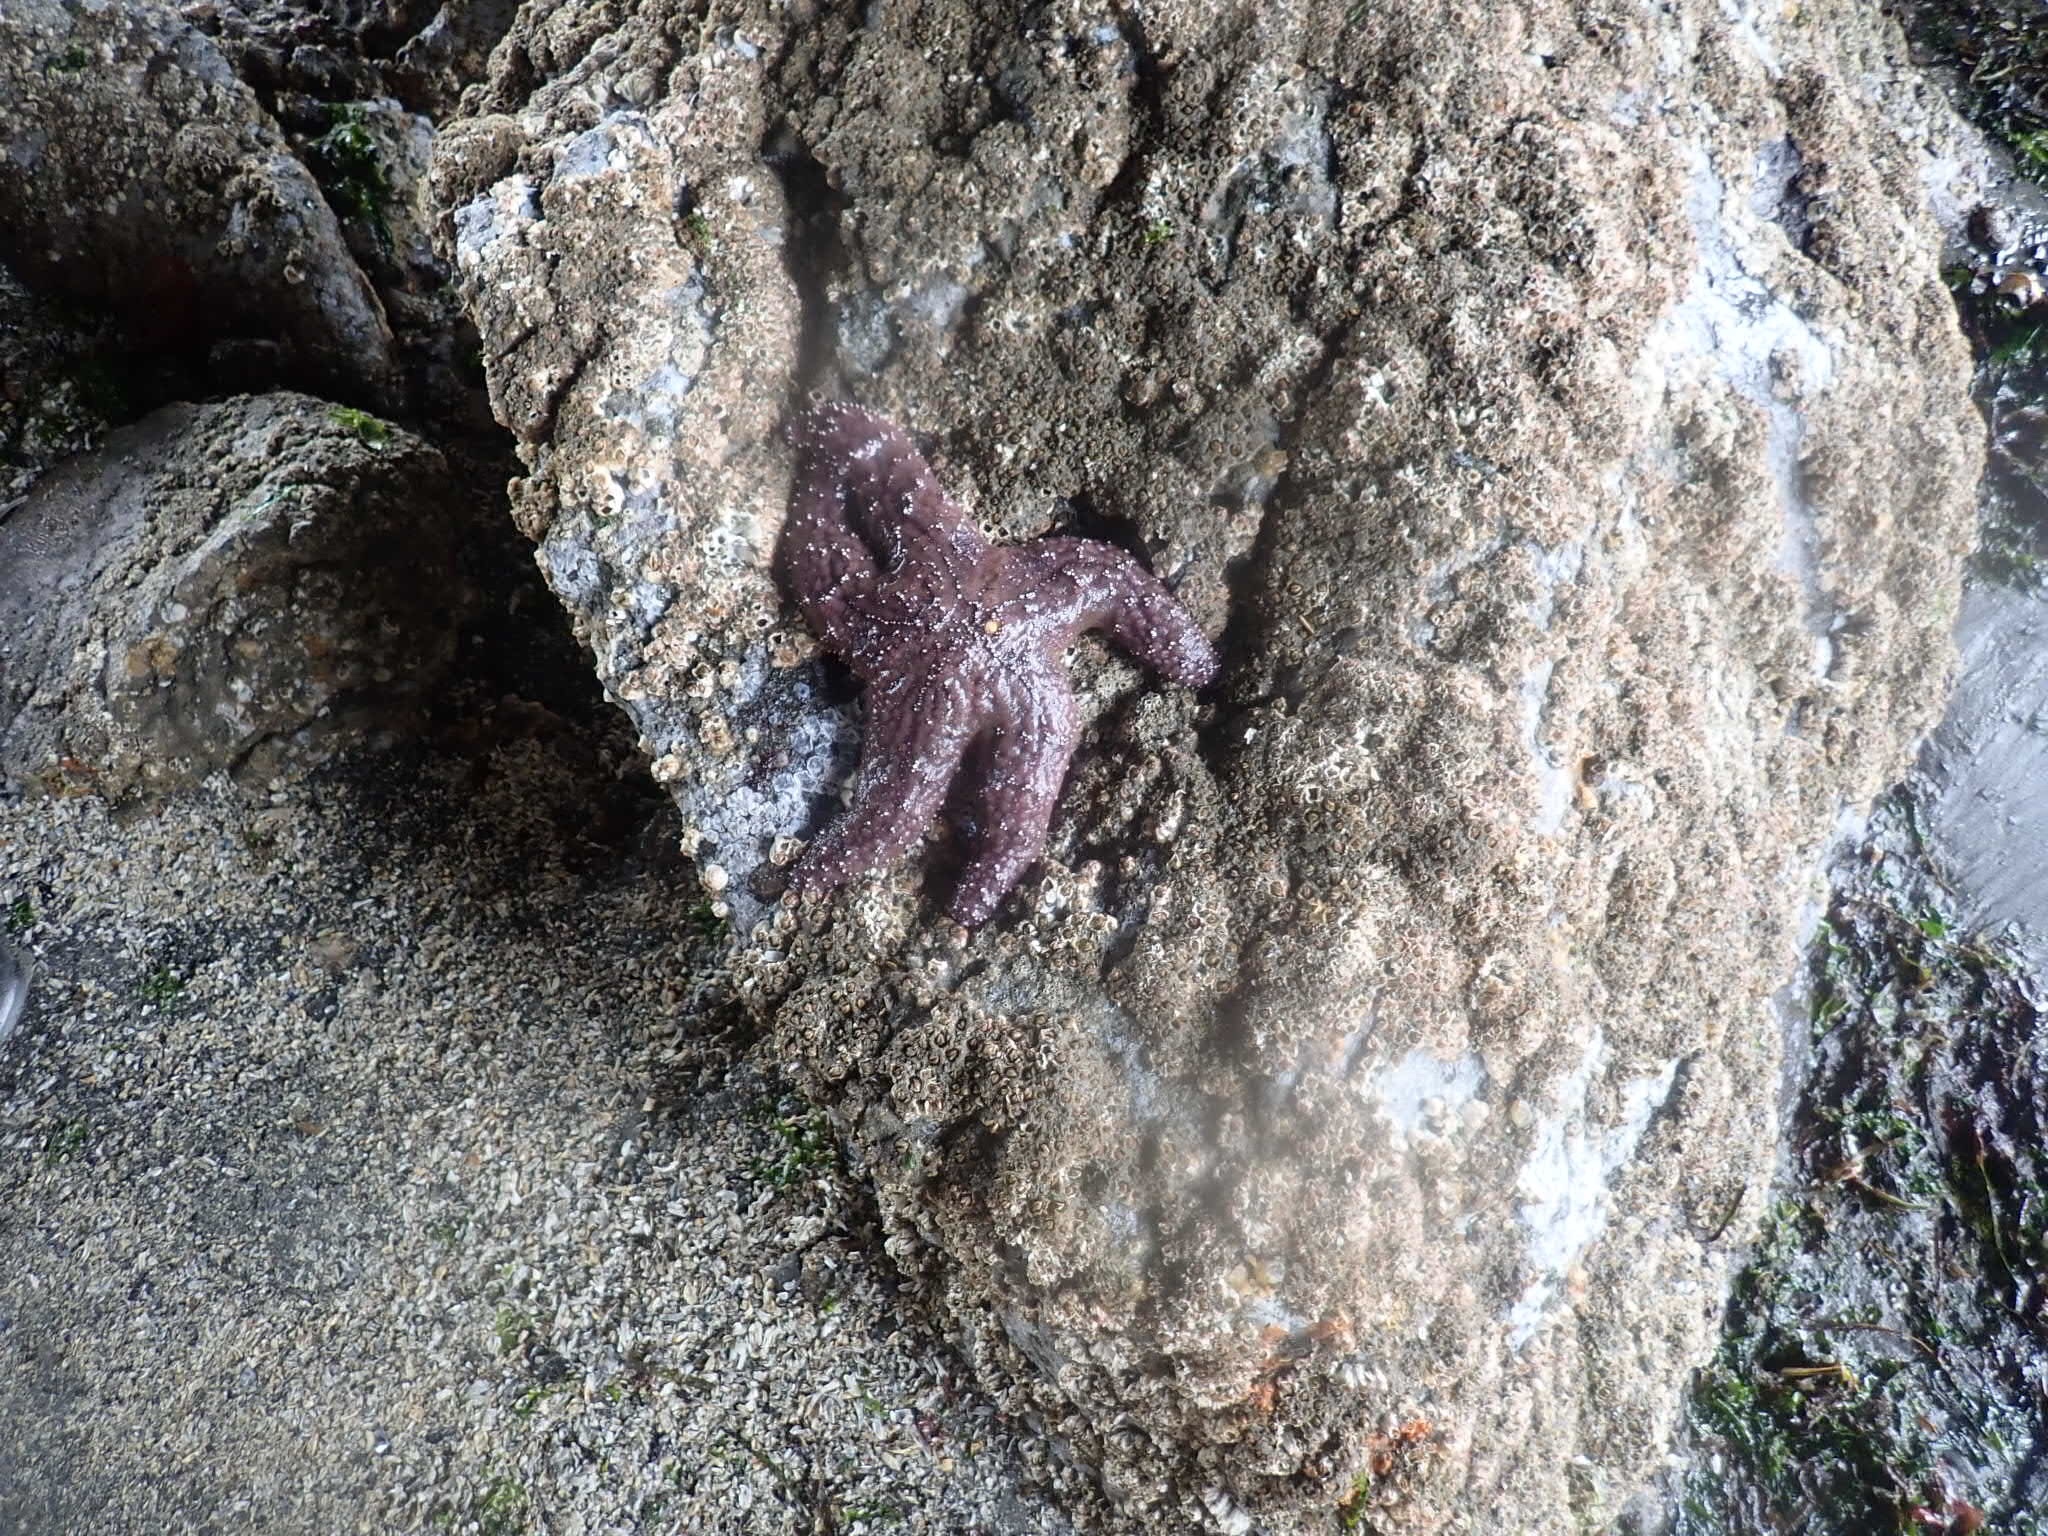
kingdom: Animalia
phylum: Echinodermata
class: Asteroidea
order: Forcipulatida
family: Asteriidae
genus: Pisaster
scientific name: Pisaster ochraceus
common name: Ochre stars
